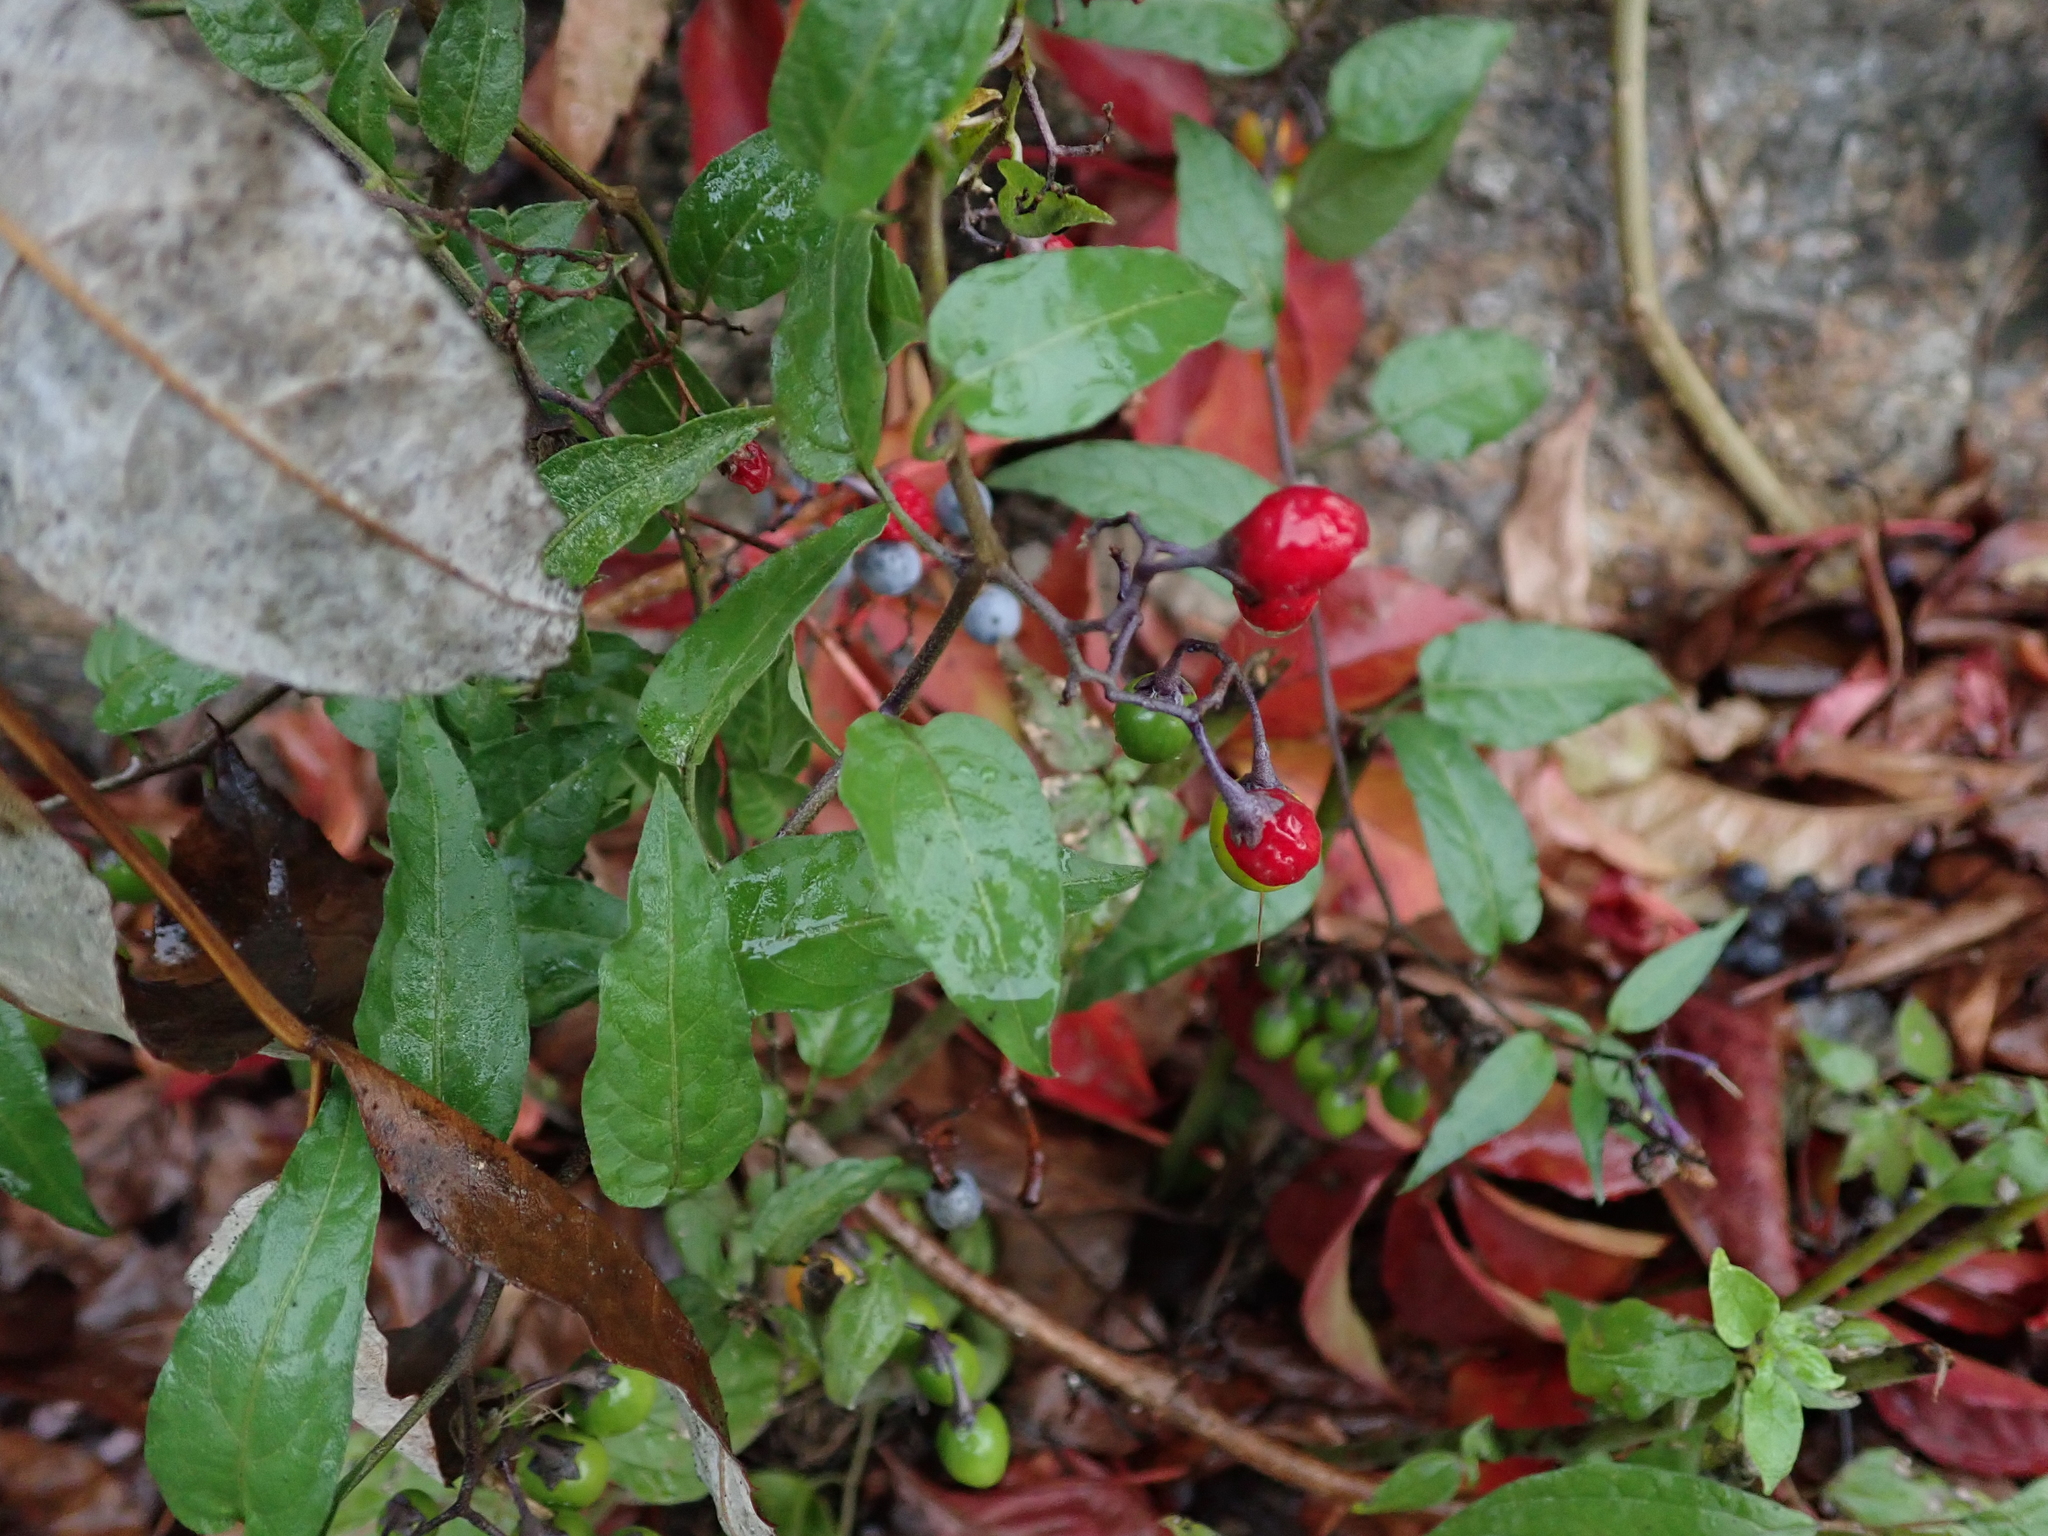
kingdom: Plantae
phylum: Tracheophyta
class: Magnoliopsida
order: Solanales
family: Solanaceae
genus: Solanum
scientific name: Solanum dulcamara
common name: Climbing nightshade
